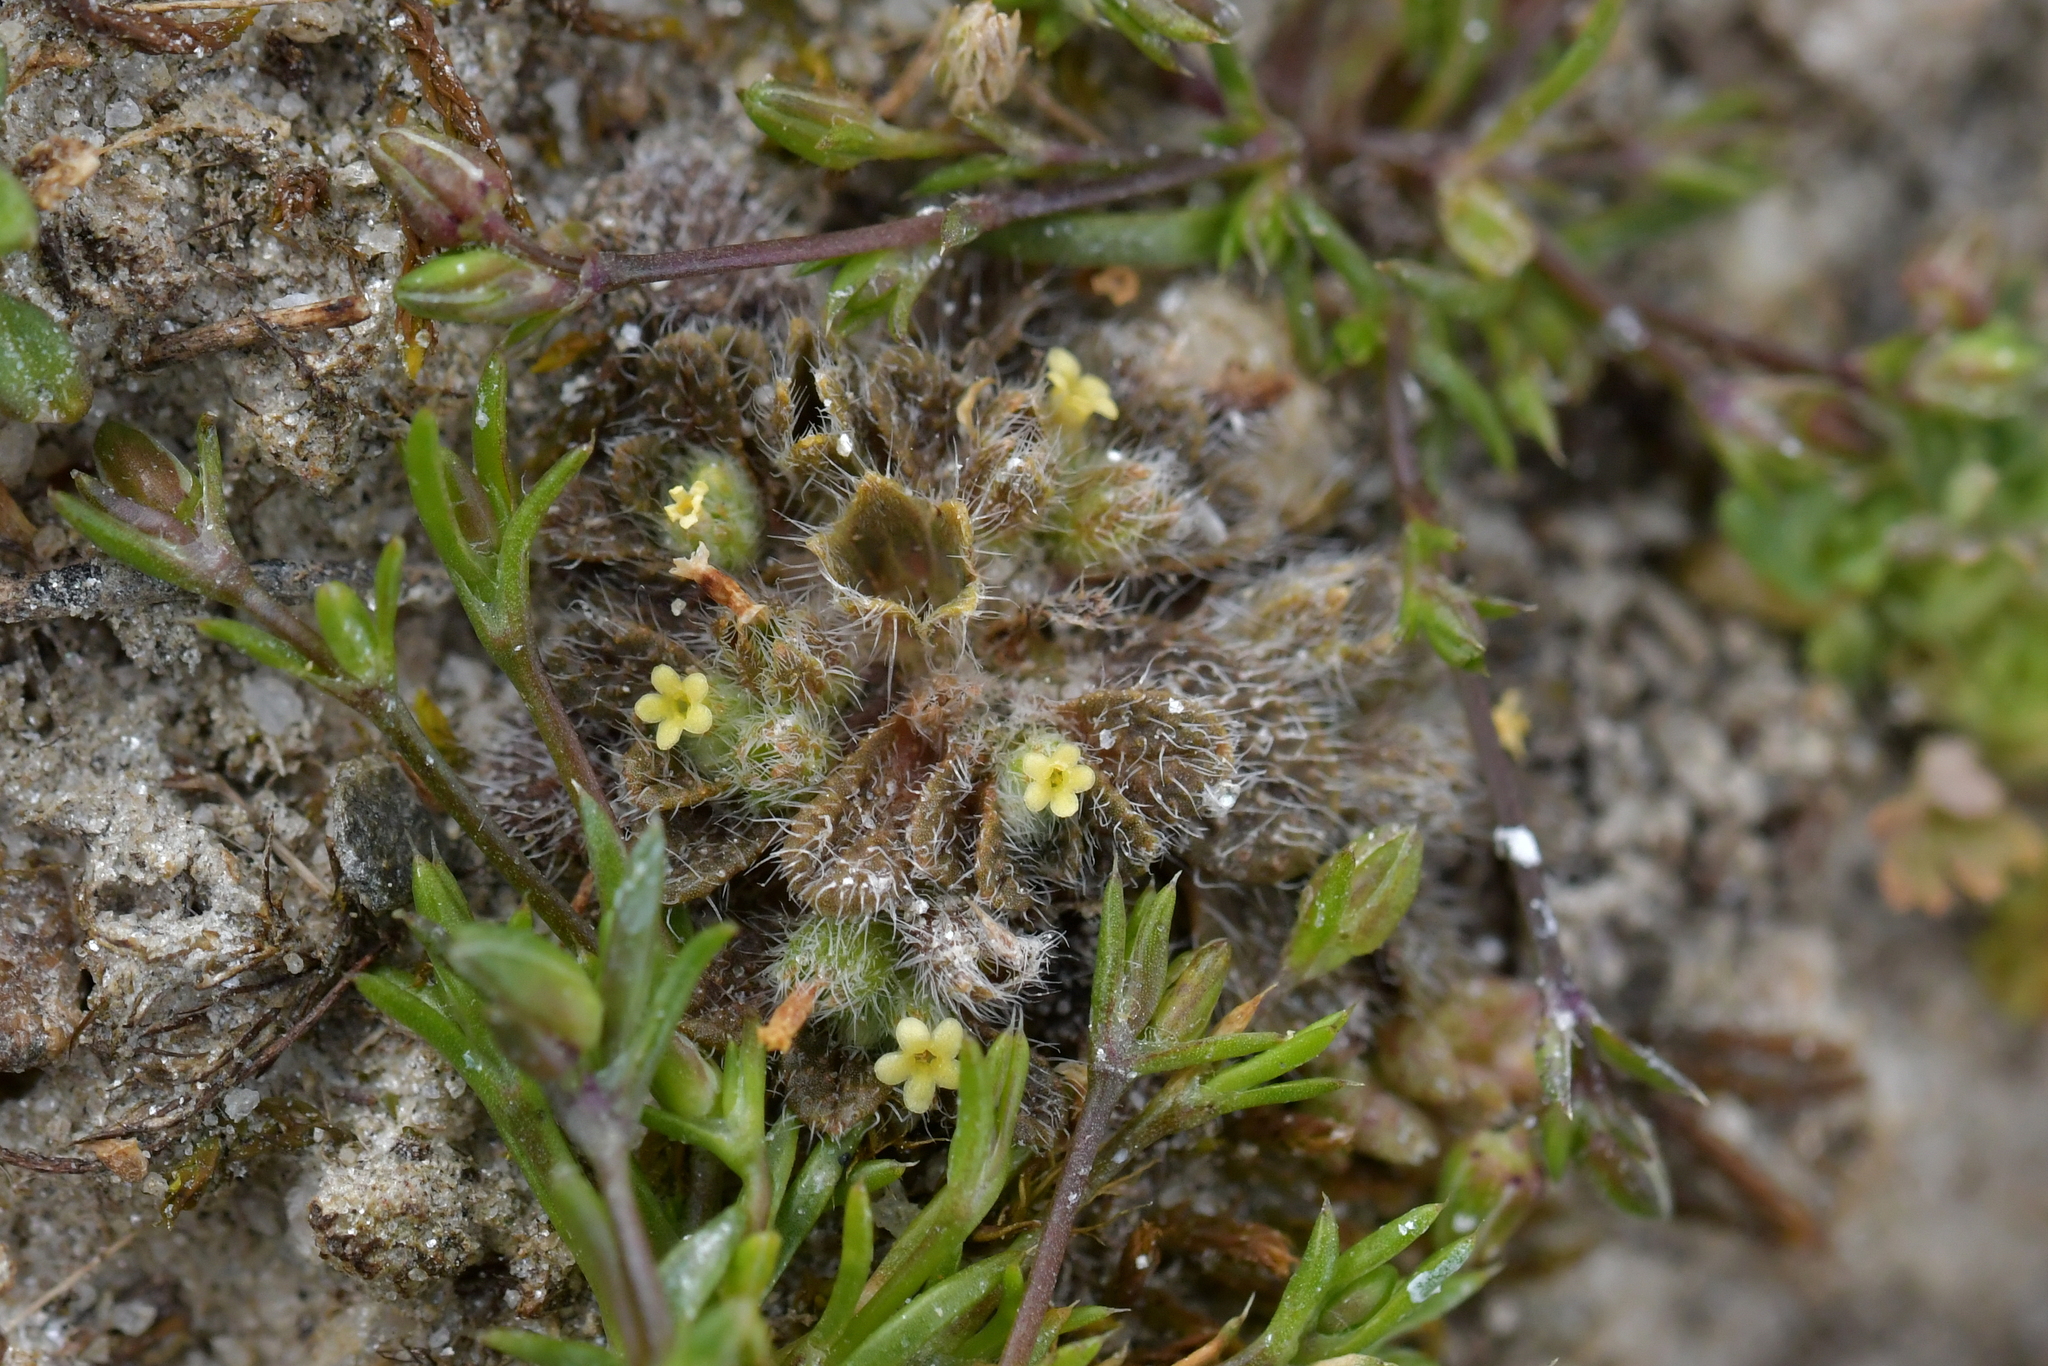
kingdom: Plantae
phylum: Tracheophyta
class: Magnoliopsida
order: Boraginales
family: Boraginaceae
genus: Myosotis
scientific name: Myosotis brevis
